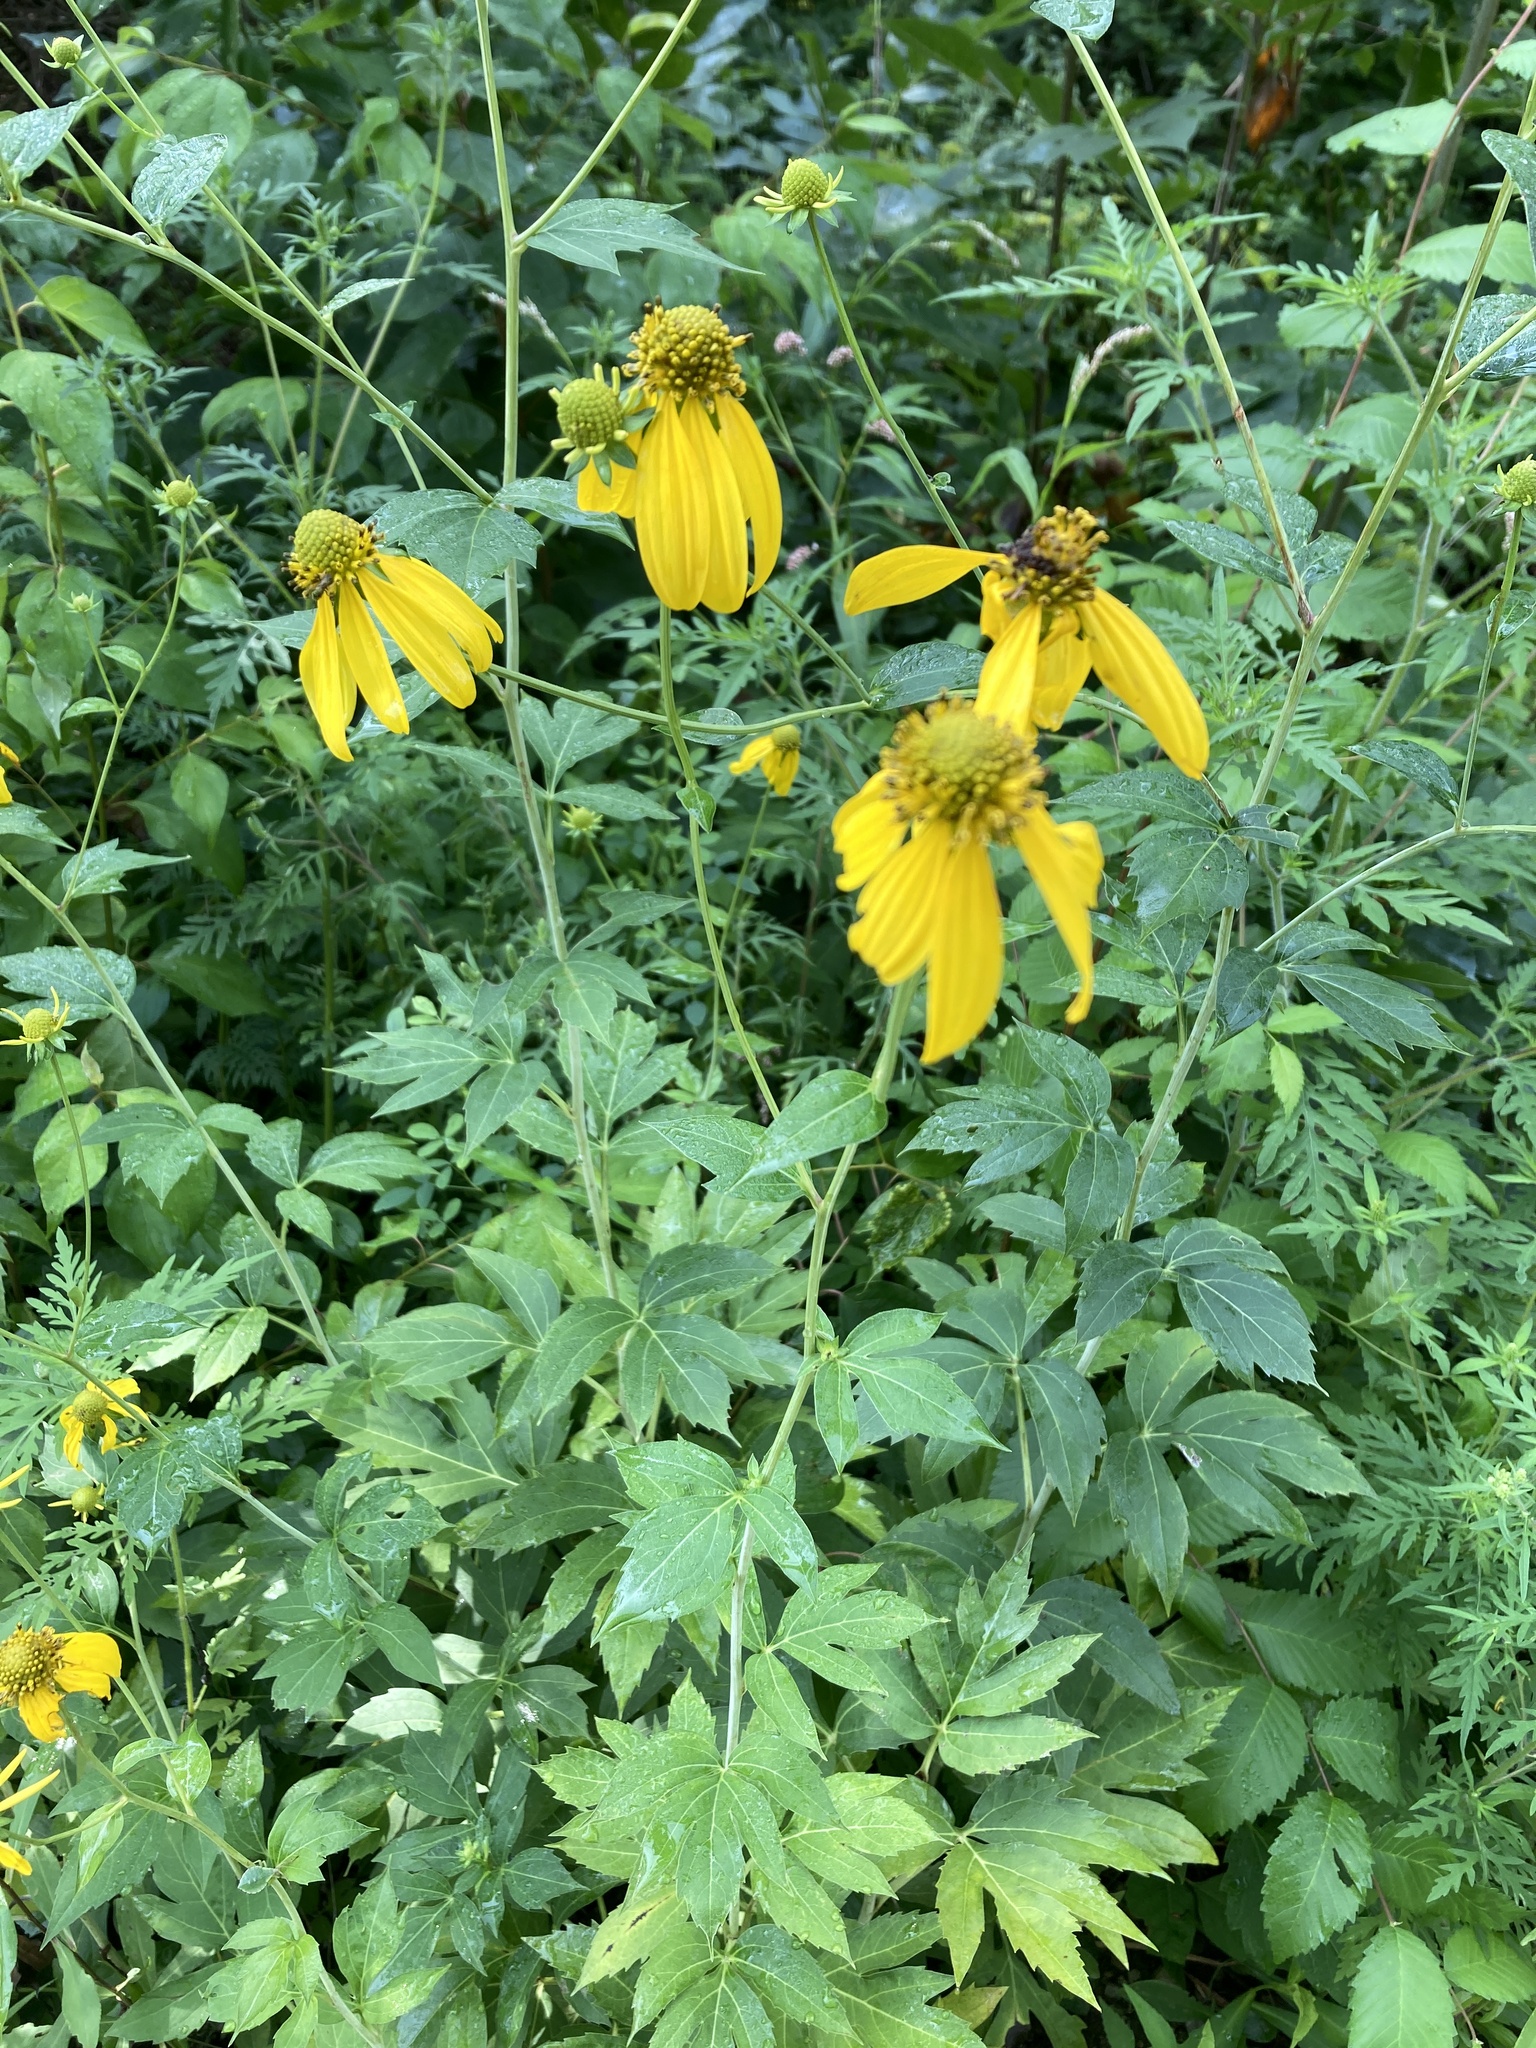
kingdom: Plantae
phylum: Tracheophyta
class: Magnoliopsida
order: Asterales
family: Asteraceae
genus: Rudbeckia
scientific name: Rudbeckia laciniata
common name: Coneflower
